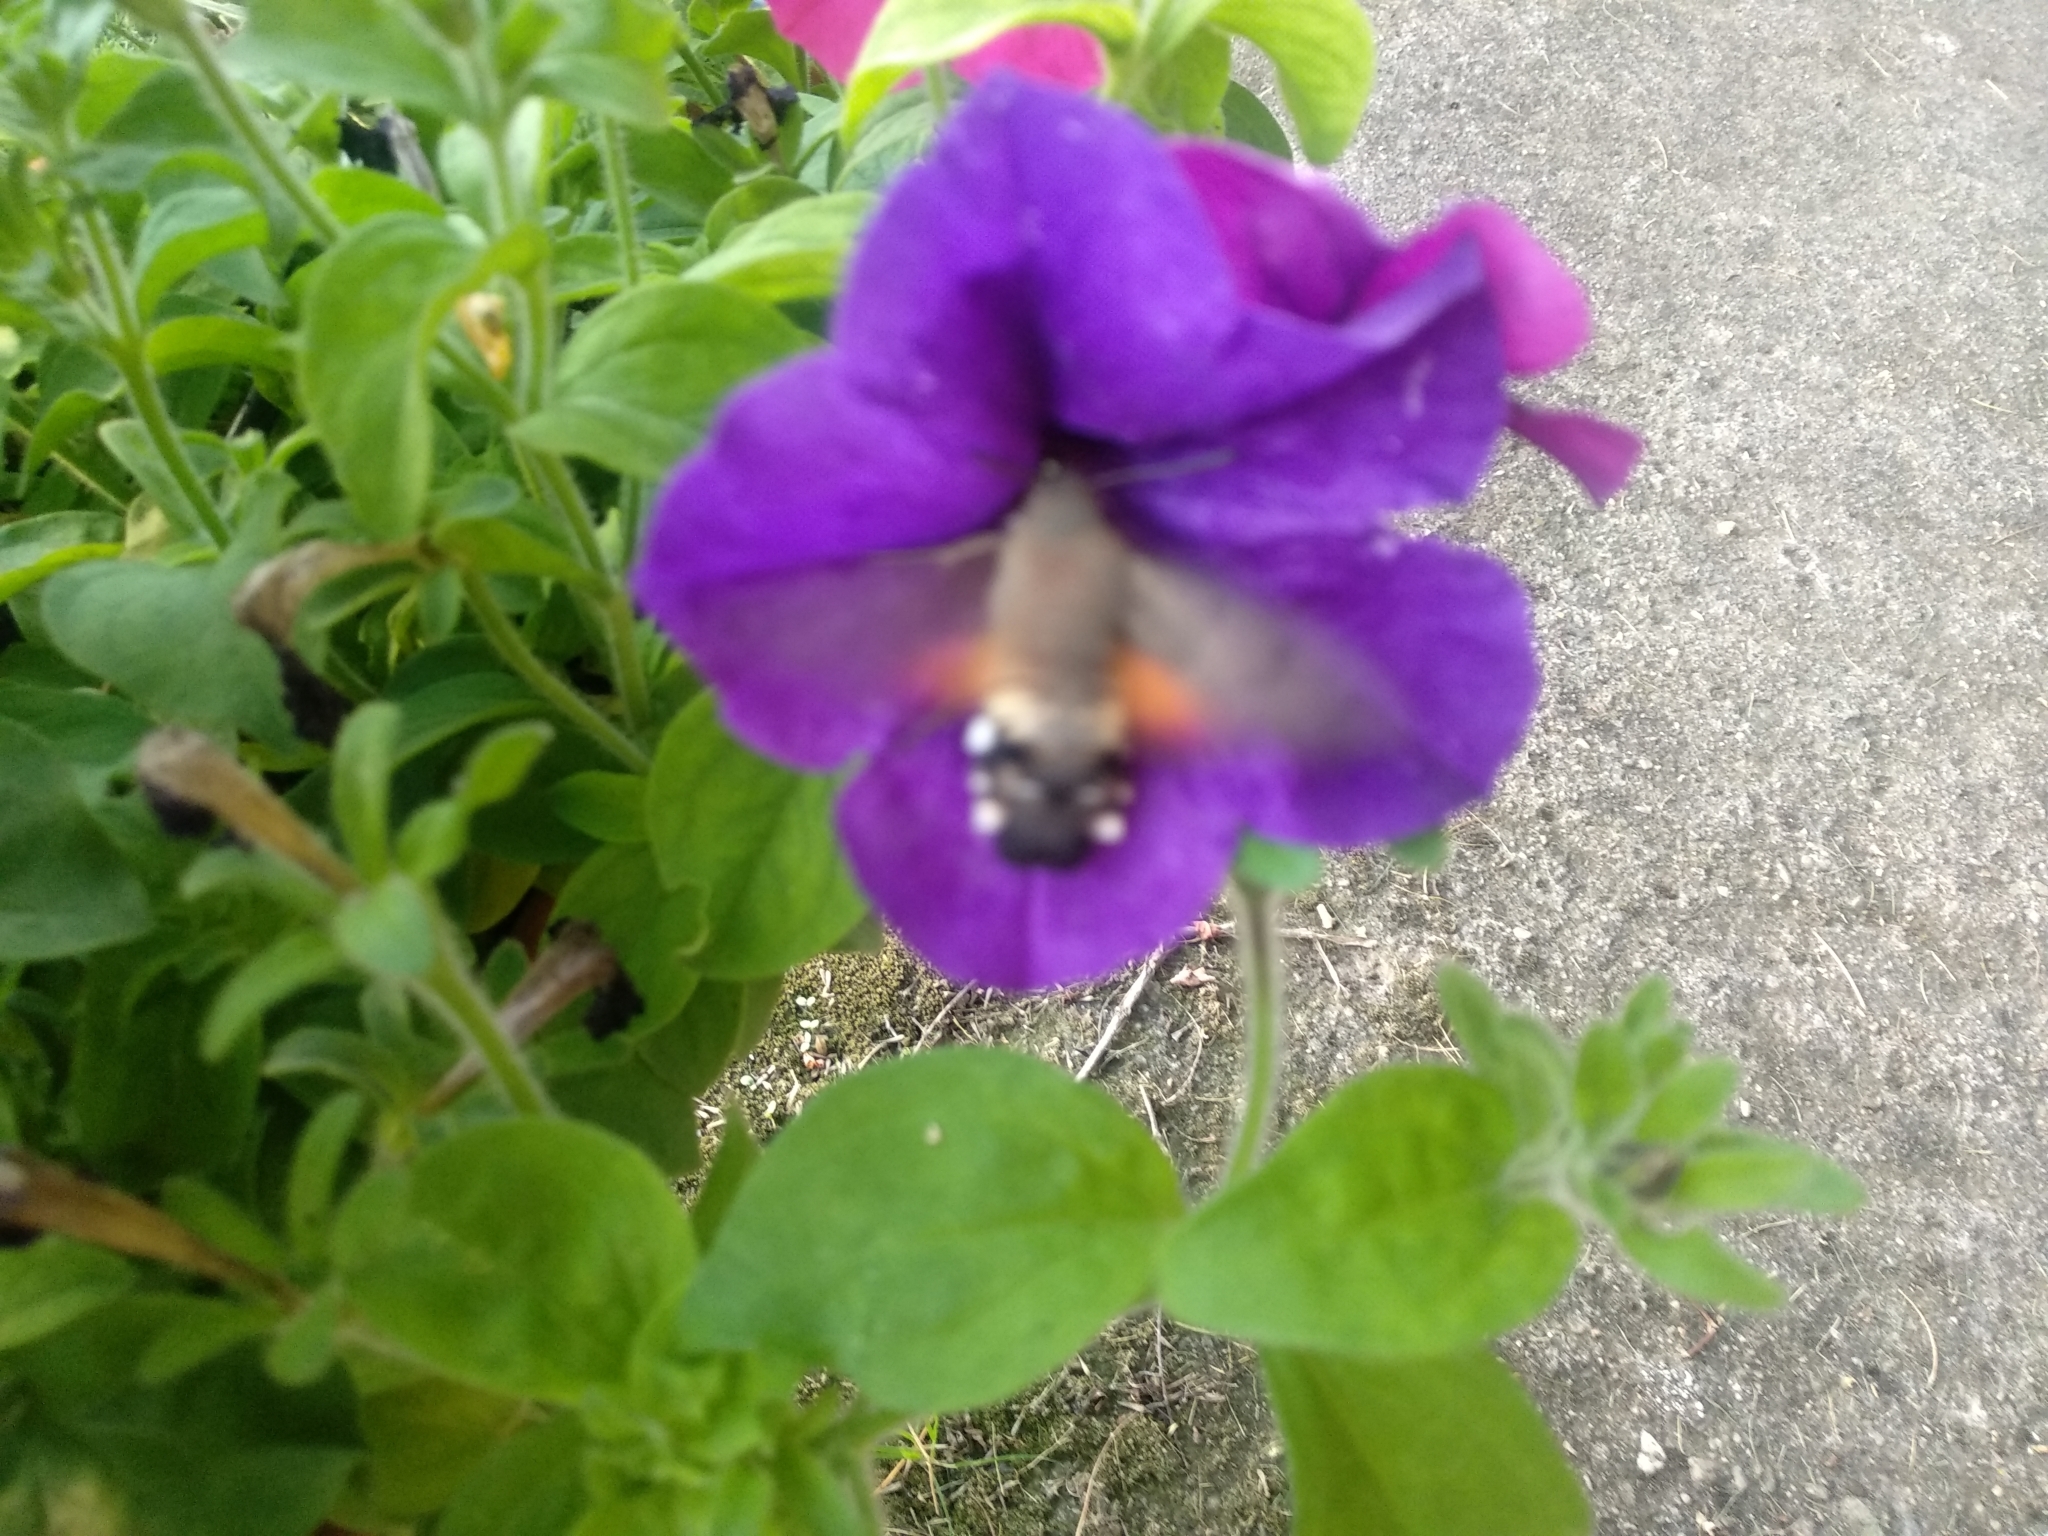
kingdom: Animalia
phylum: Arthropoda
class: Insecta
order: Lepidoptera
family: Sphingidae
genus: Macroglossum
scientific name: Macroglossum stellatarum
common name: Humming-bird hawk-moth
